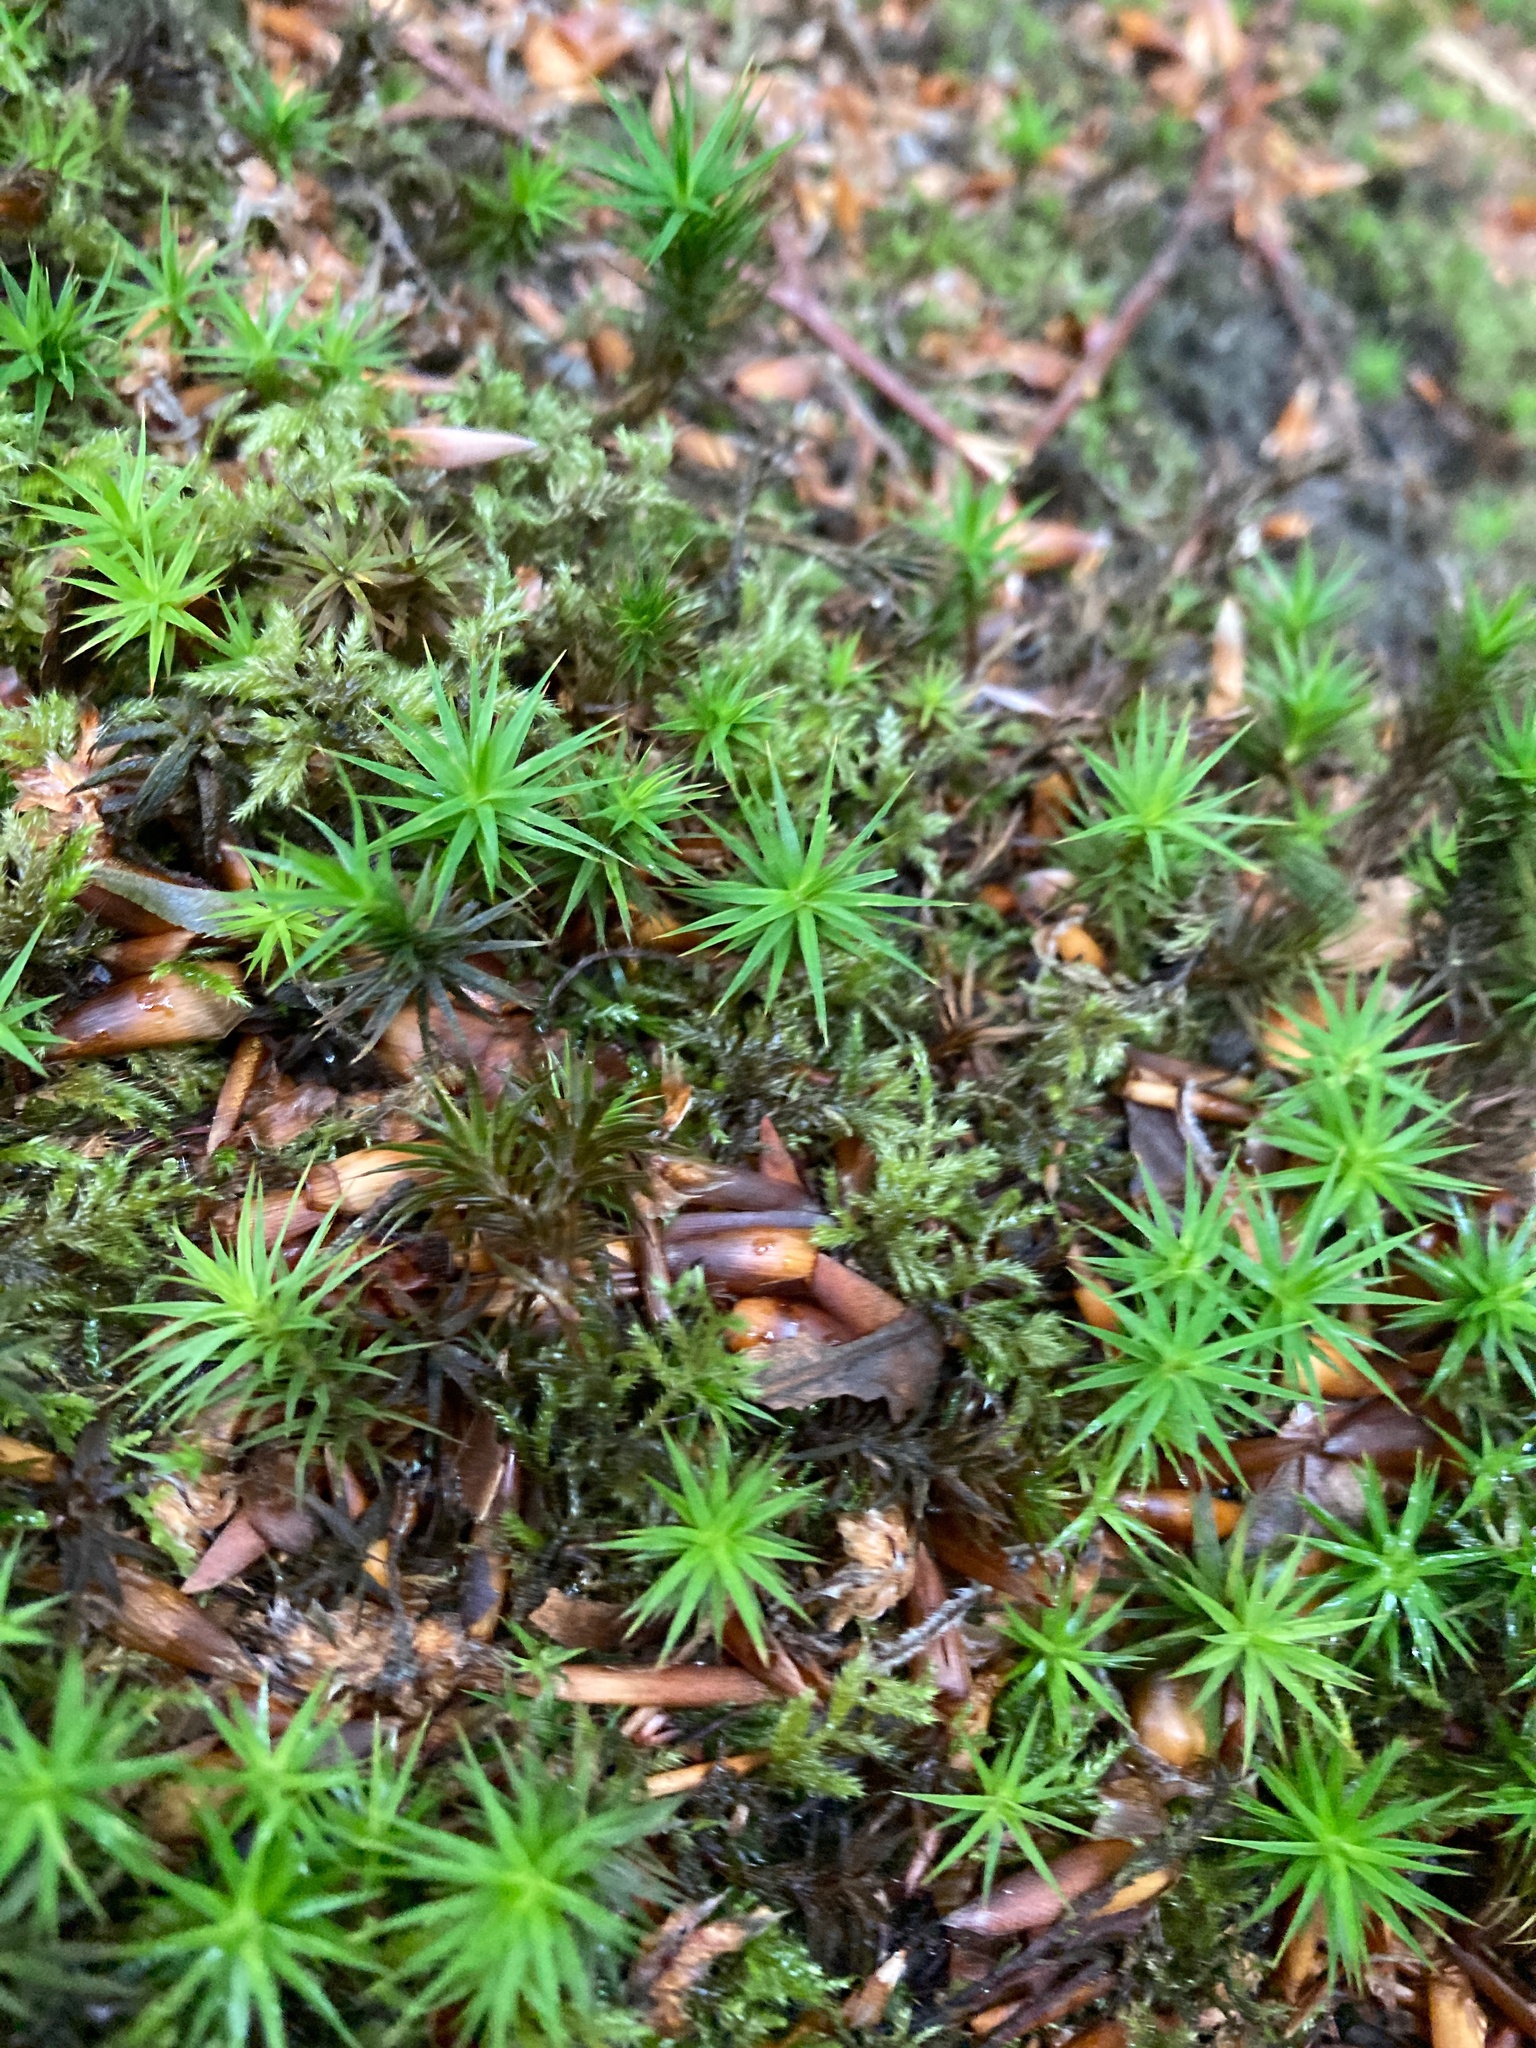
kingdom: Plantae
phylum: Bryophyta
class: Polytrichopsida
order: Polytrichales
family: Polytrichaceae
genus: Polytrichum
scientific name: Polytrichum formosum
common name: Bank haircap moss
